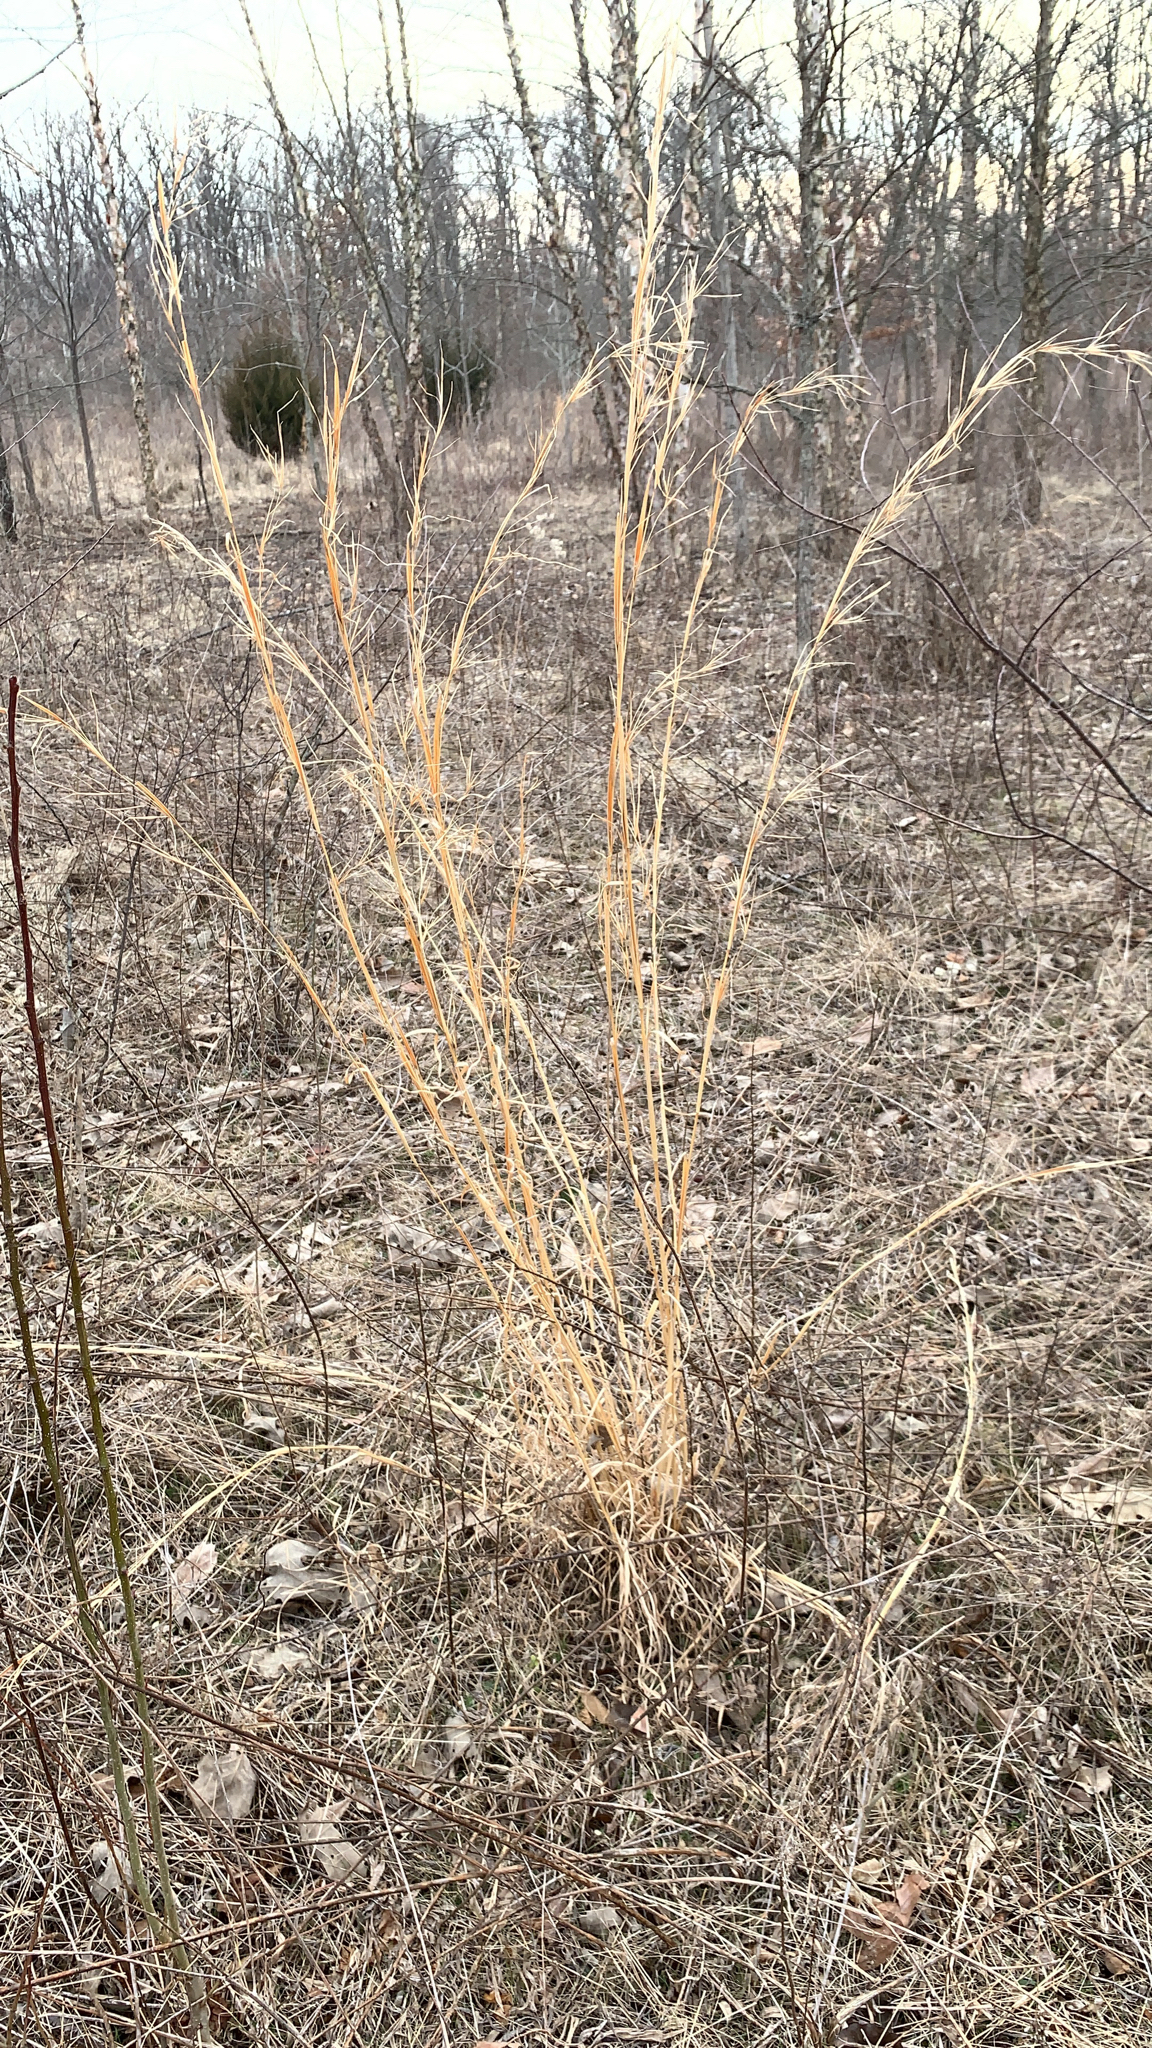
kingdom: Plantae
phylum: Tracheophyta
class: Liliopsida
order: Poales
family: Poaceae
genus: Andropogon
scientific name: Andropogon virginicus
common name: Broomsedge bluestem
